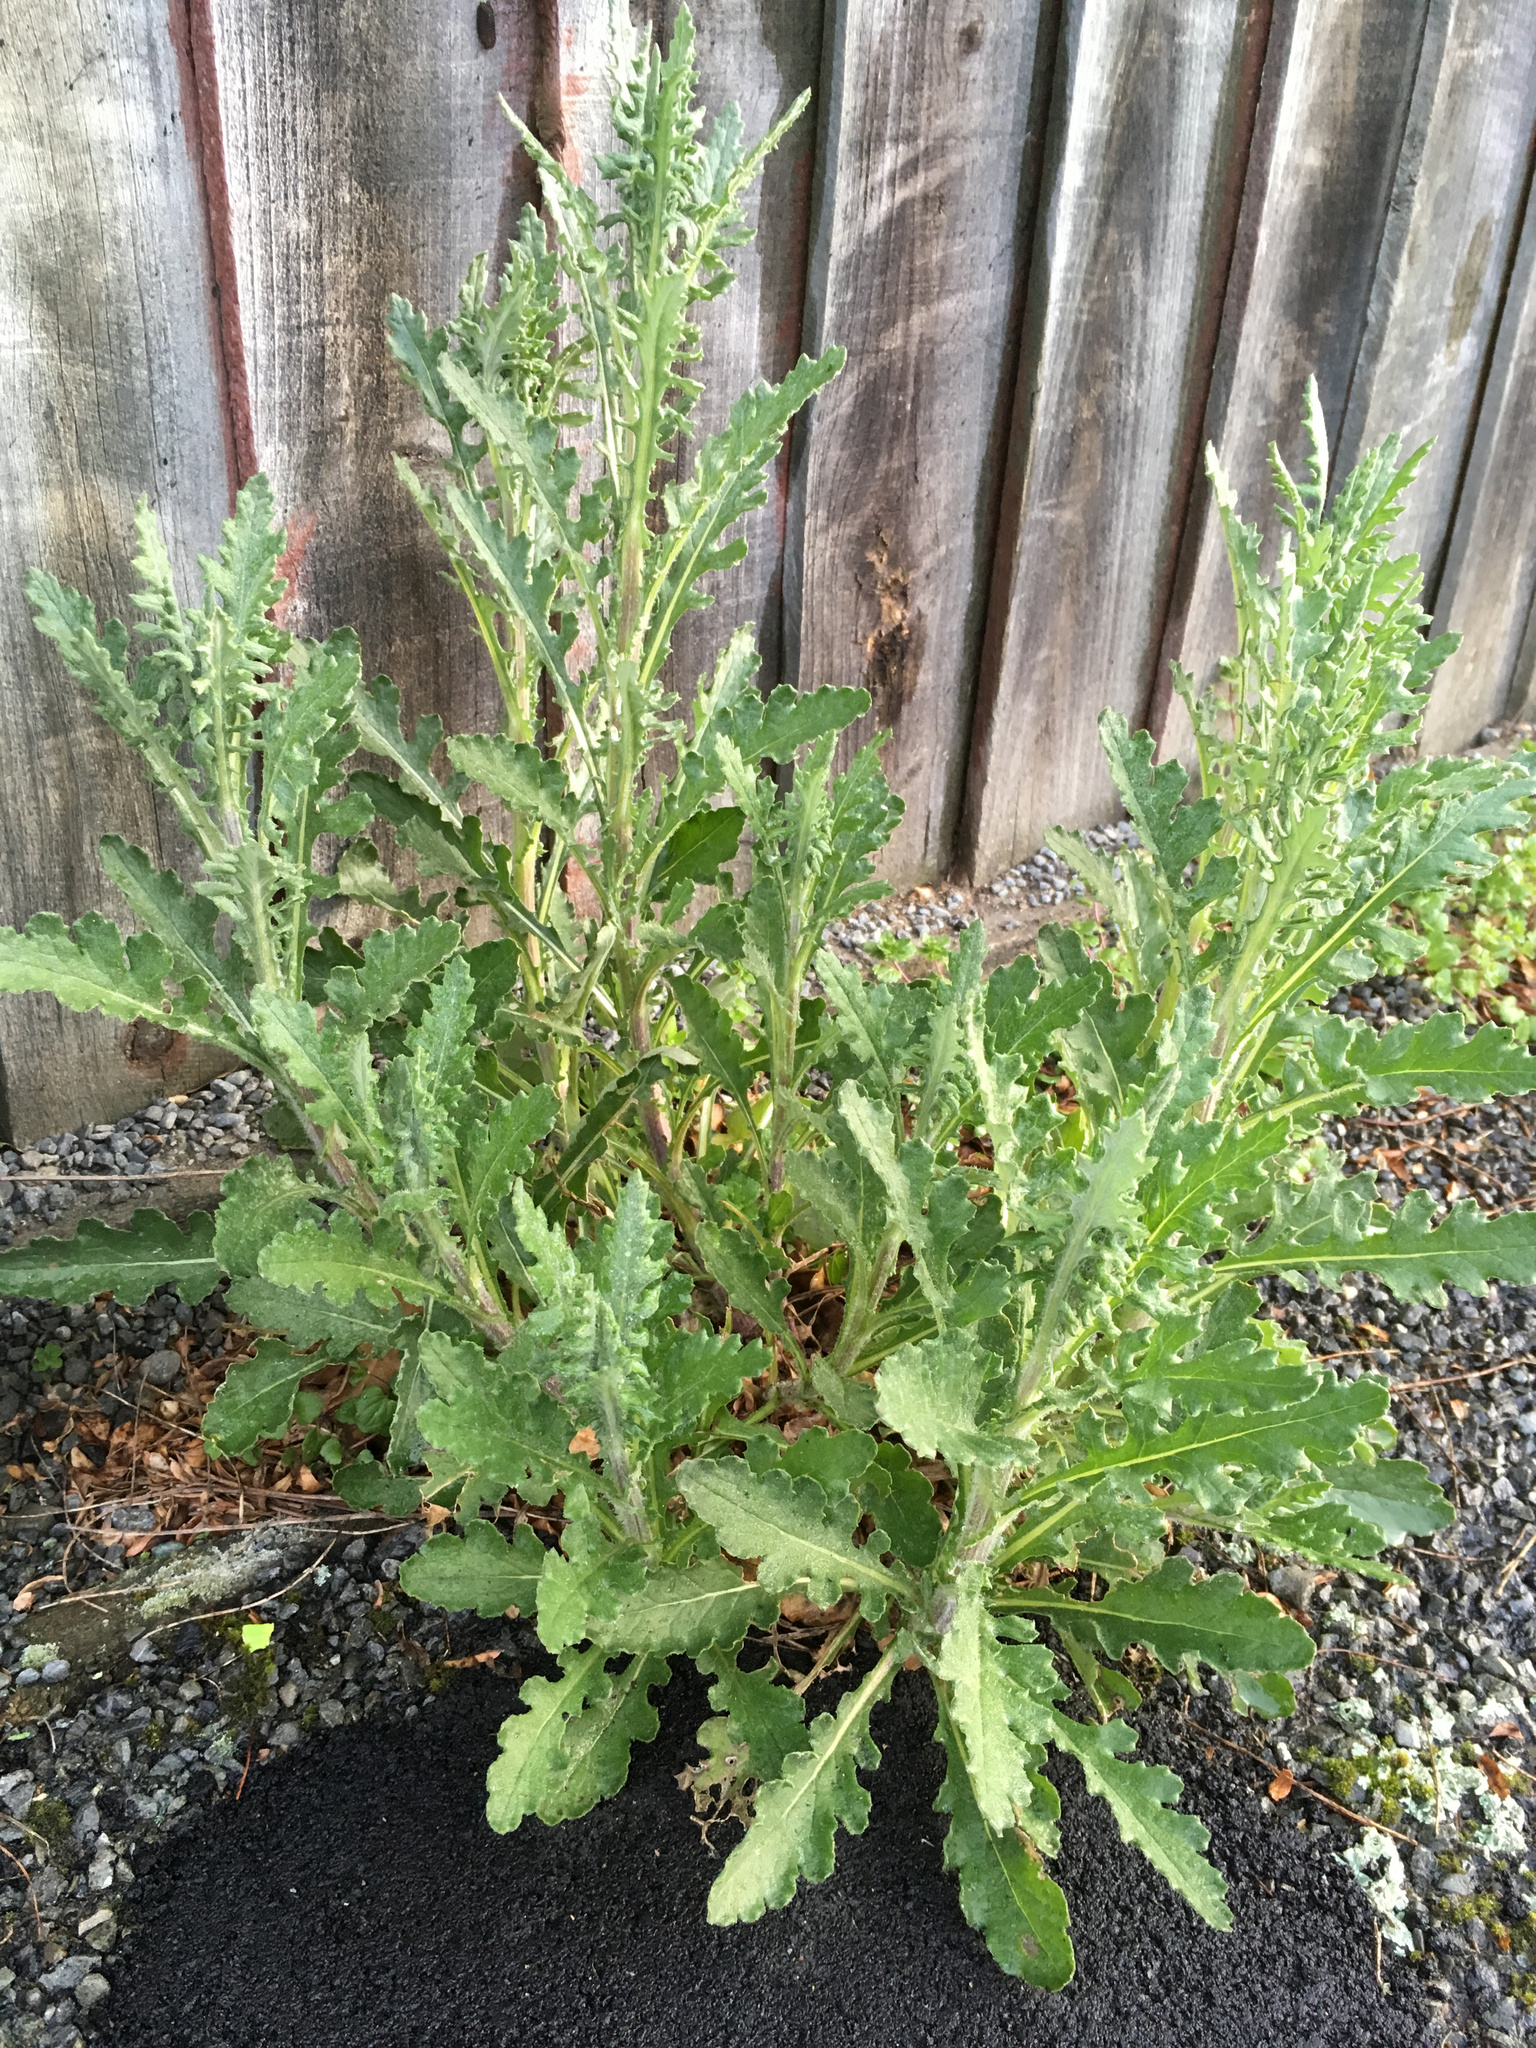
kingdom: Plantae
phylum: Tracheophyta
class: Magnoliopsida
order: Asterales
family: Asteraceae
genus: Senecio
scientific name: Senecio glomeratus
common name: Cutleaf burnweed
